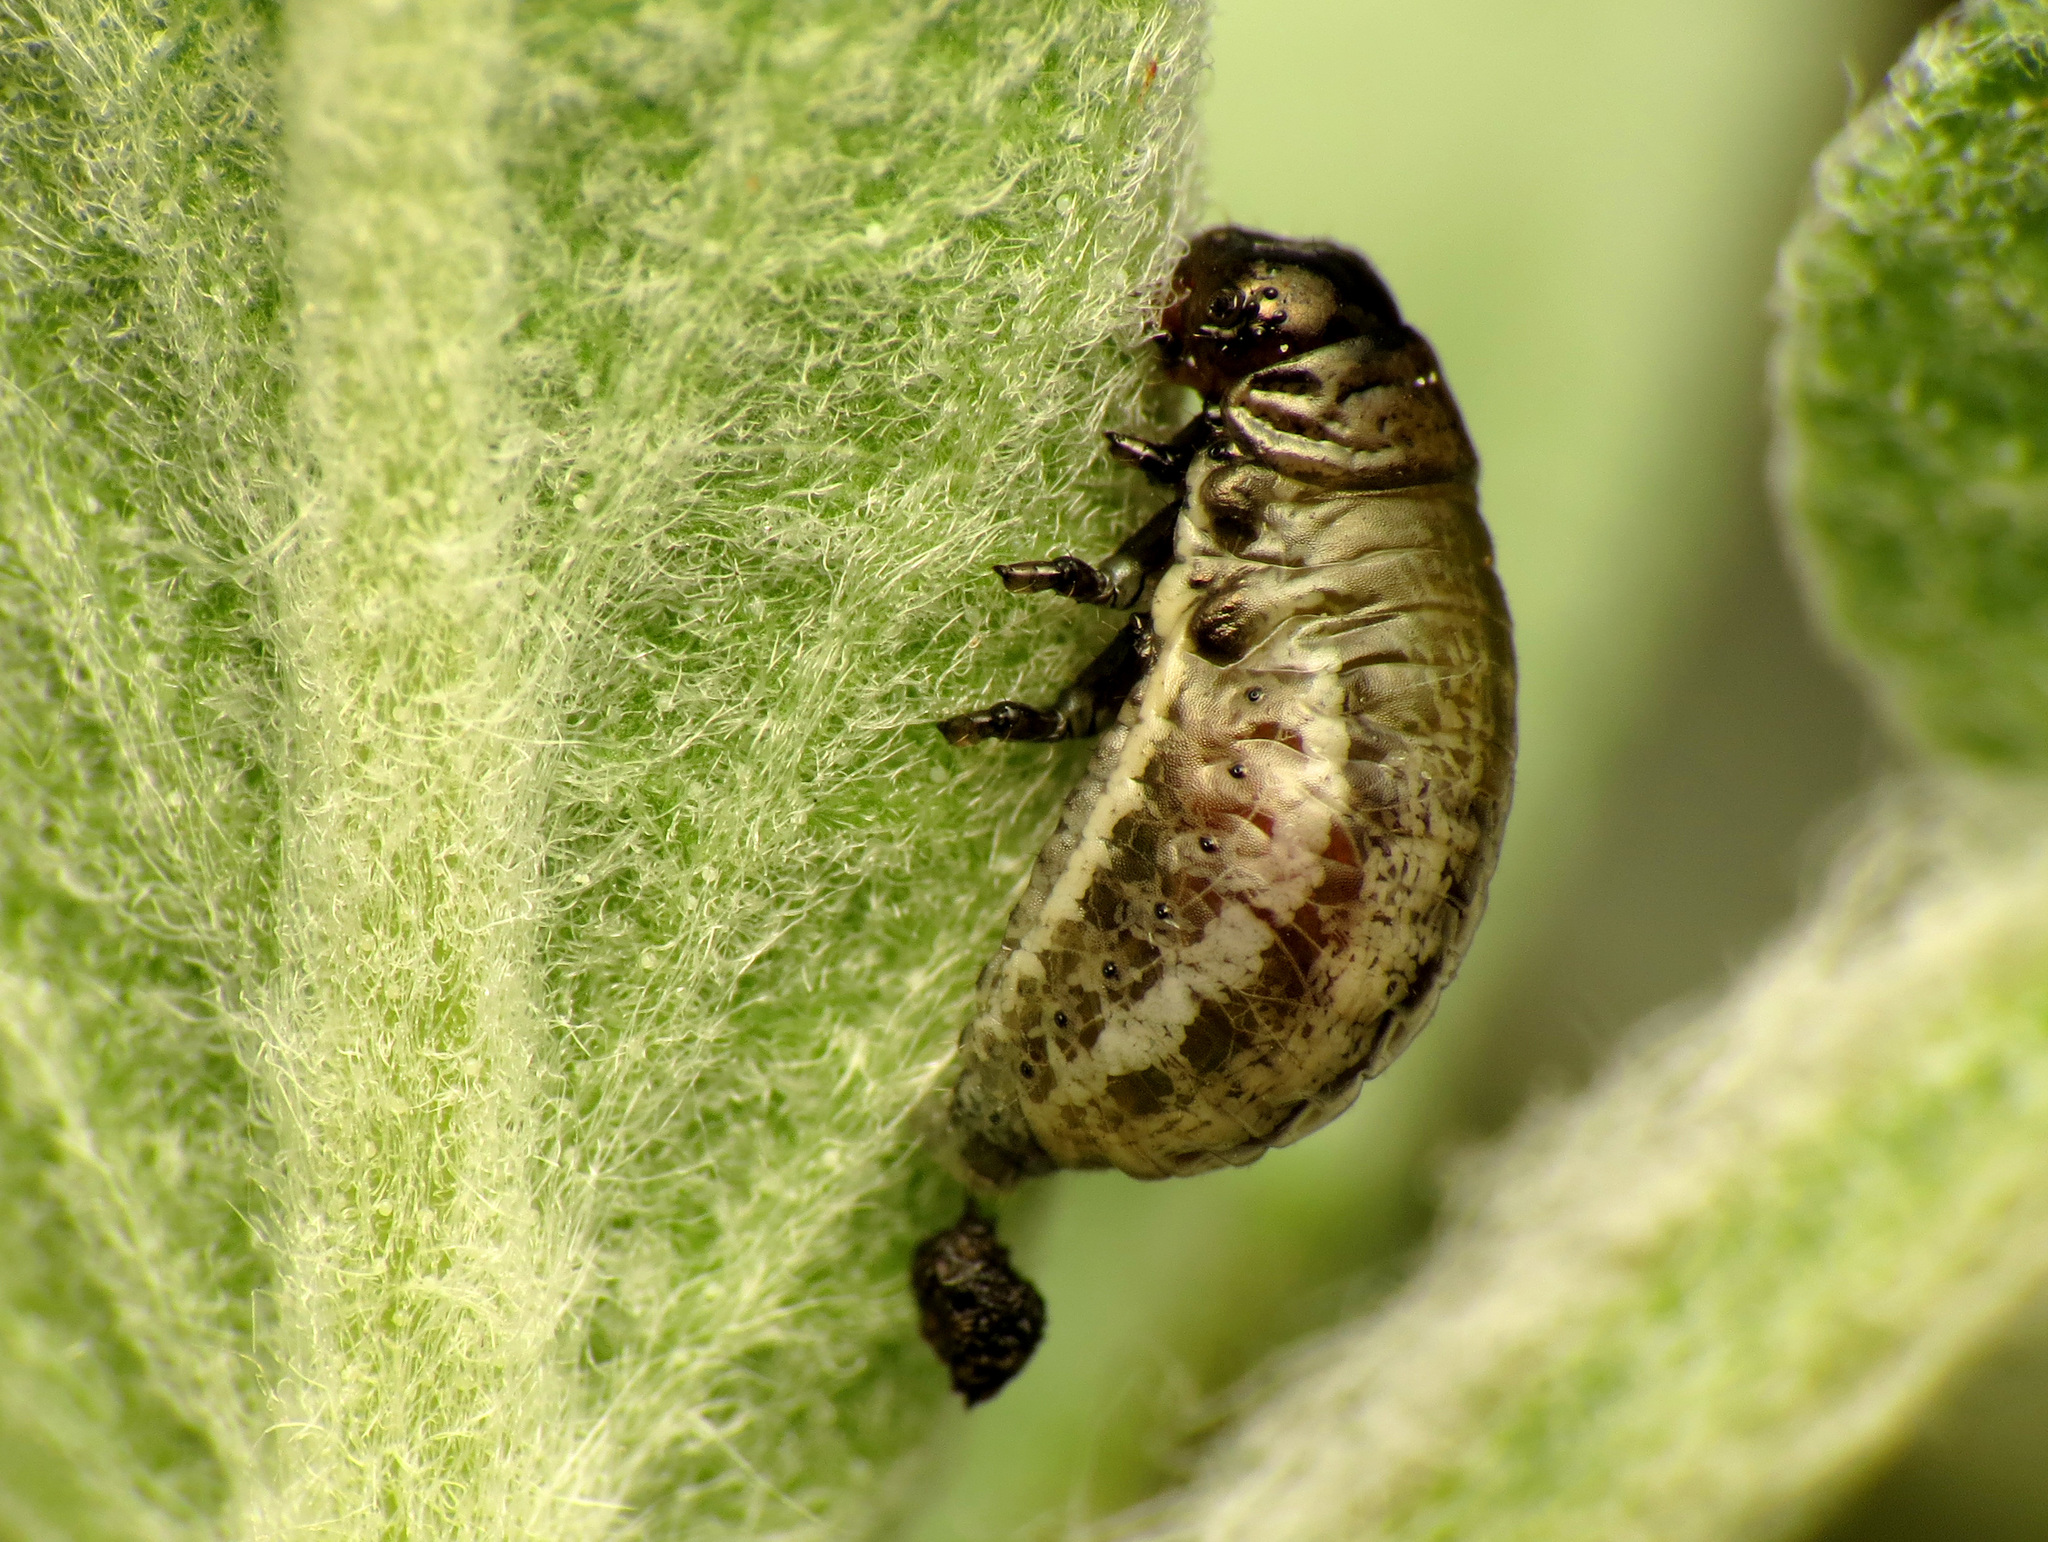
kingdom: Animalia
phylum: Arthropoda
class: Insecta
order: Coleoptera
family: Chrysomelidae
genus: Chrysolina
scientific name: Chrysolina americana
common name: Rosemary beetle
